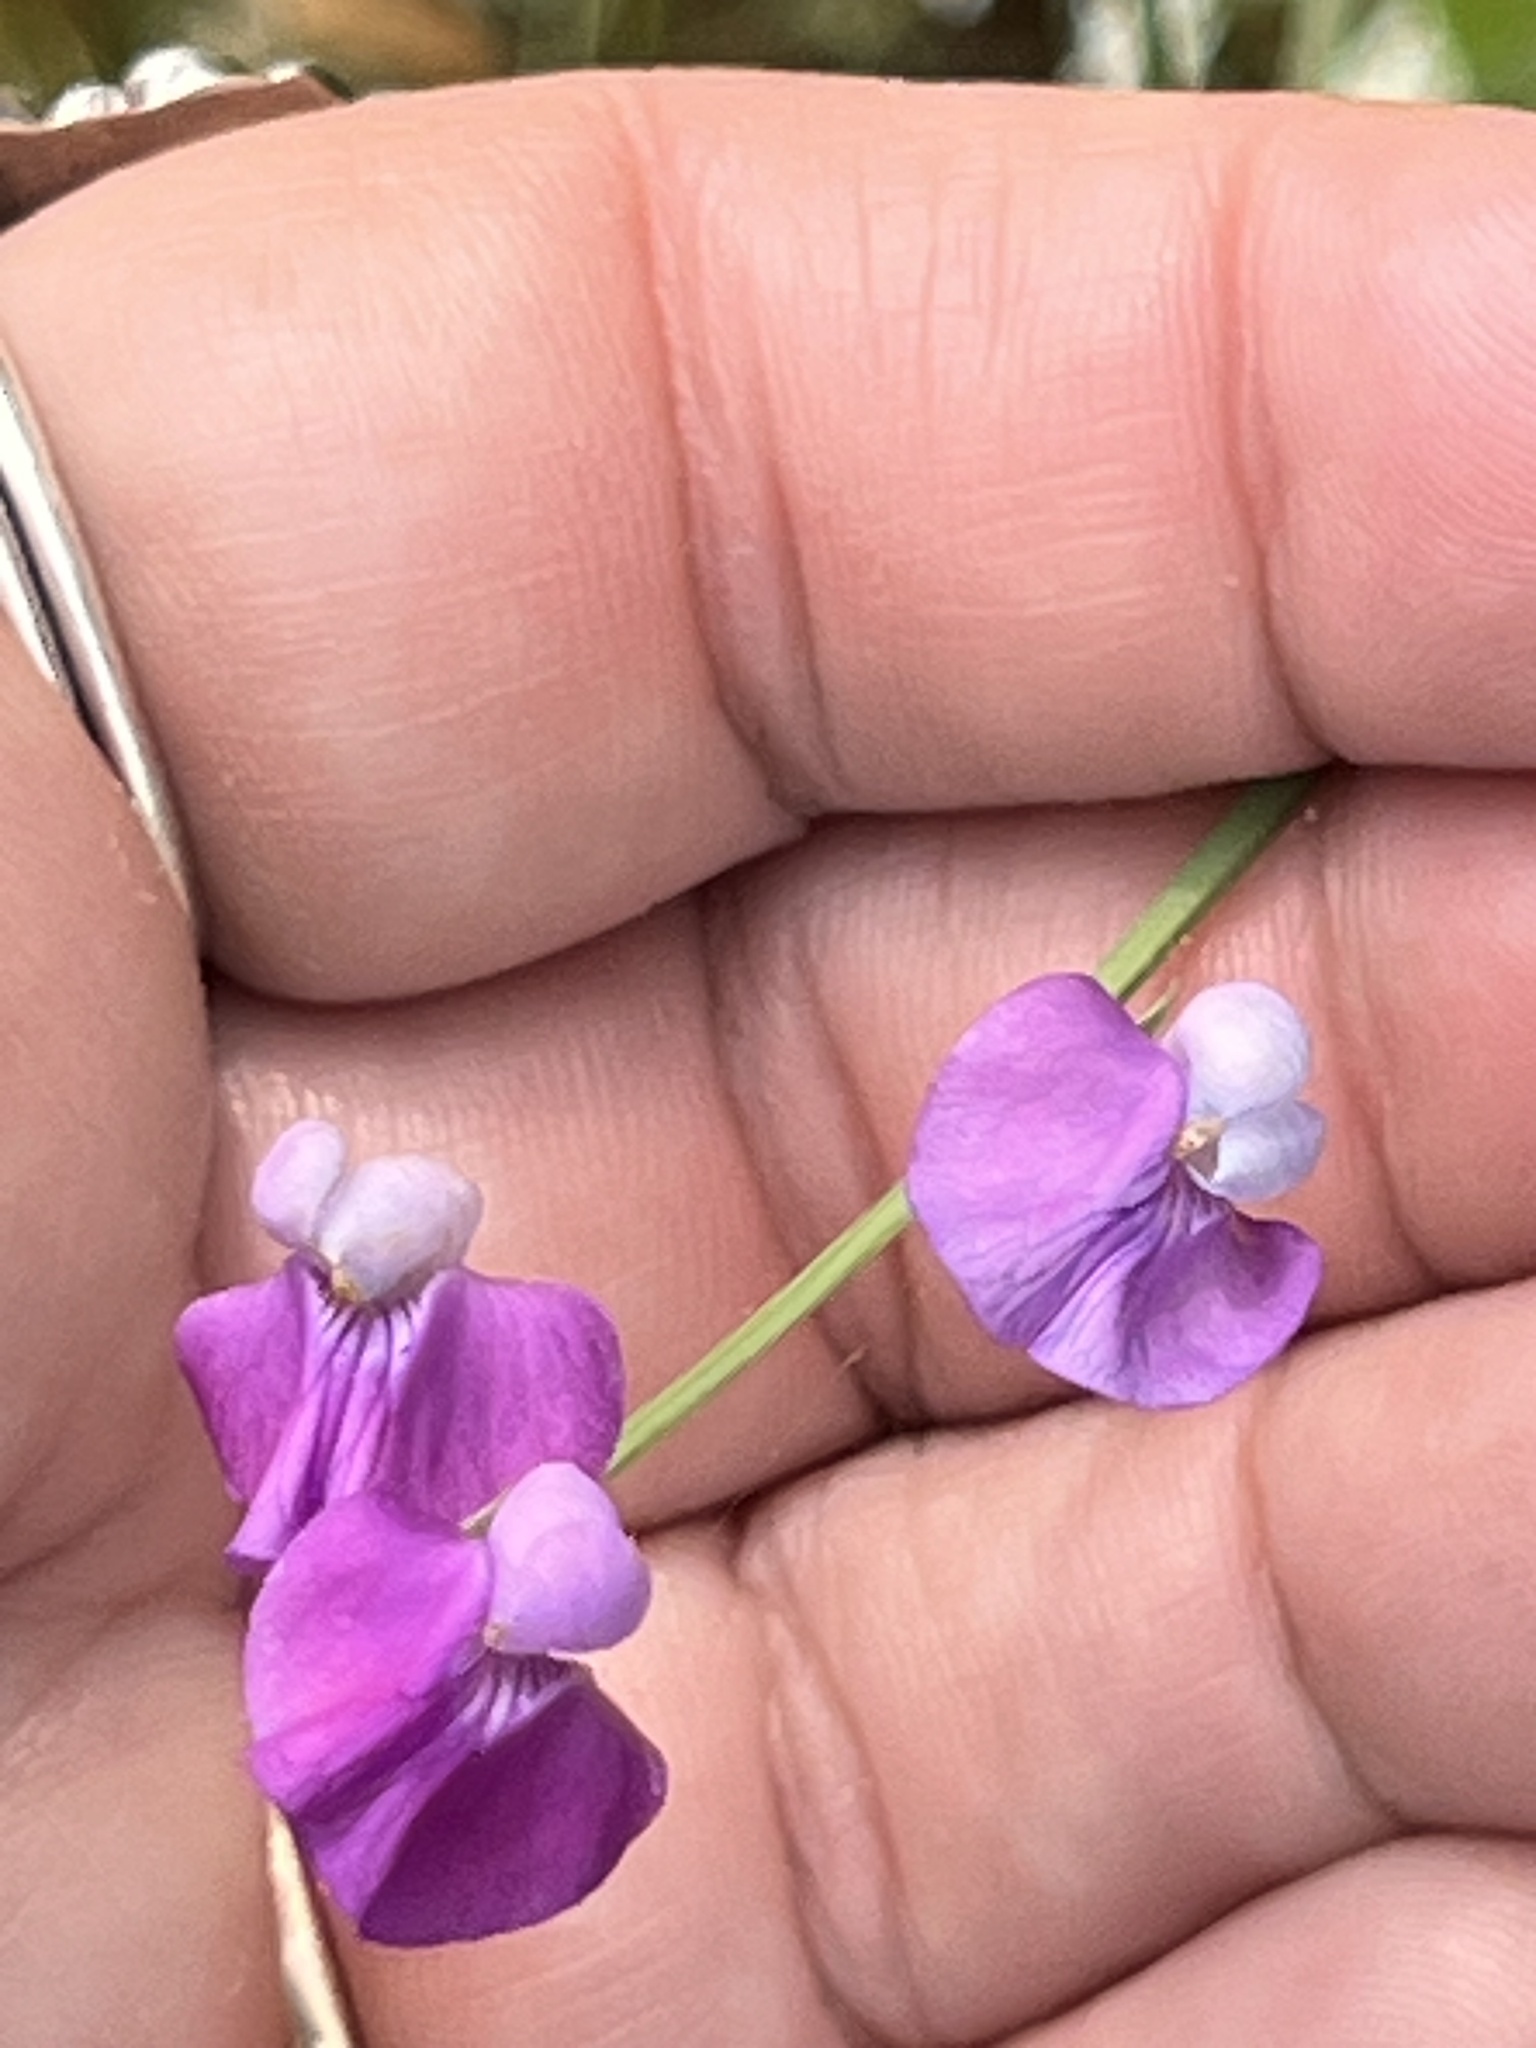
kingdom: Plantae
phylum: Tracheophyta
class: Magnoliopsida
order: Fabales
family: Fabaceae
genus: Lathyrus
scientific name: Lathyrus hirsutus
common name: Hairy vetchling
